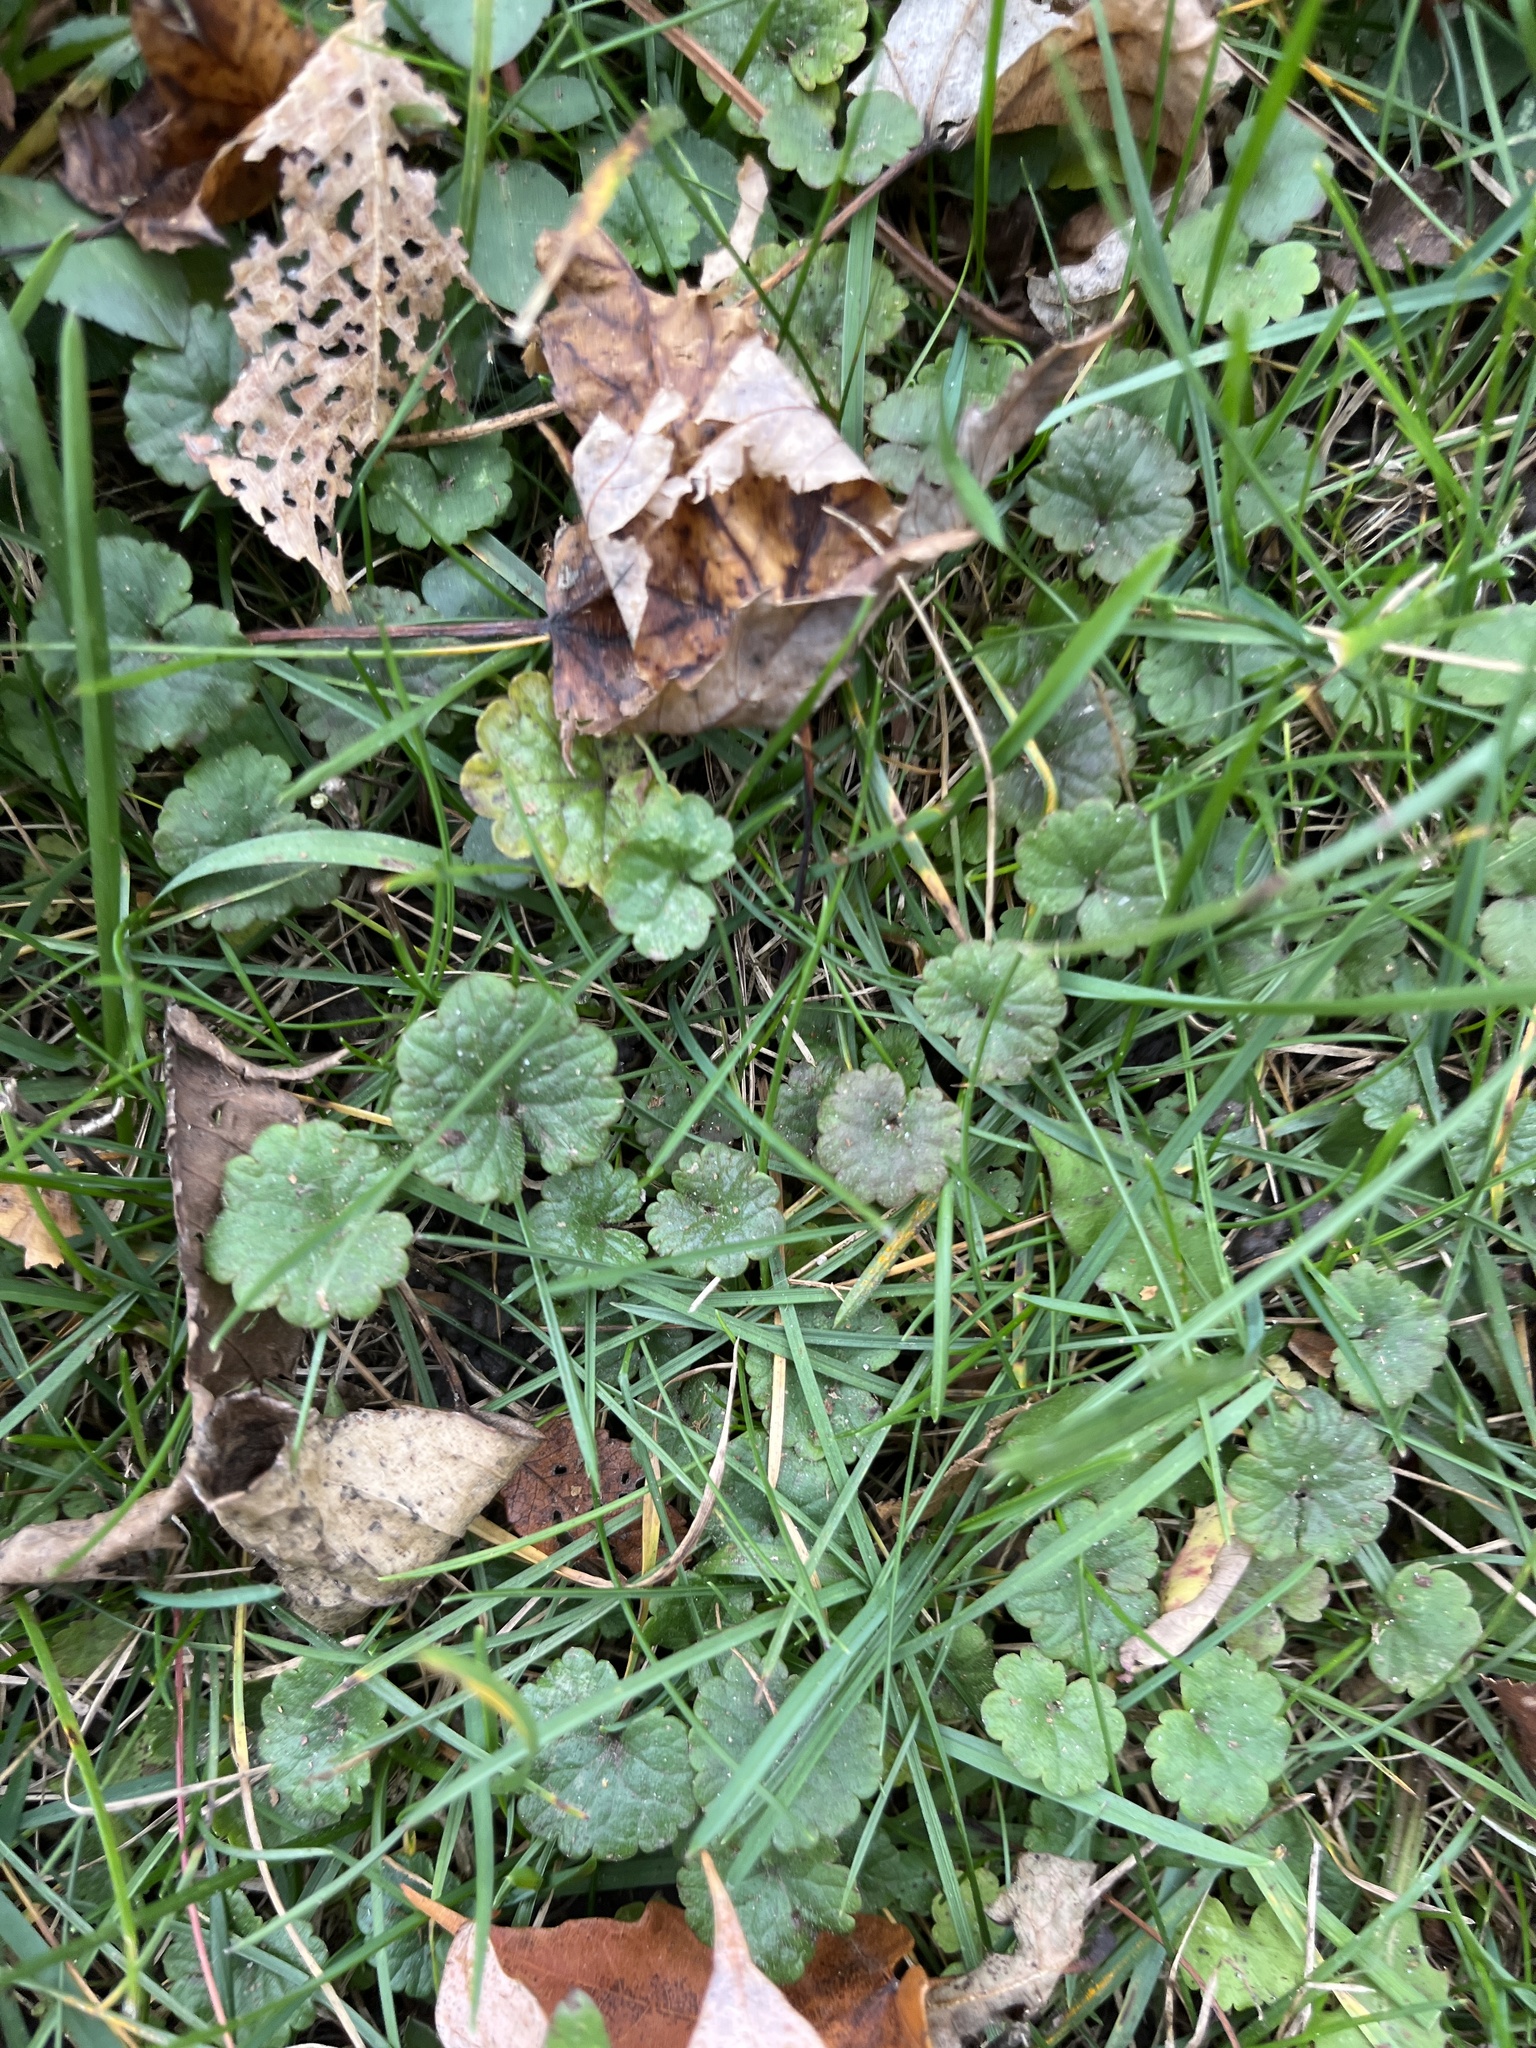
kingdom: Plantae
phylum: Tracheophyta
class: Magnoliopsida
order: Lamiales
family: Lamiaceae
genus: Glechoma
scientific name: Glechoma hederacea
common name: Ground ivy
